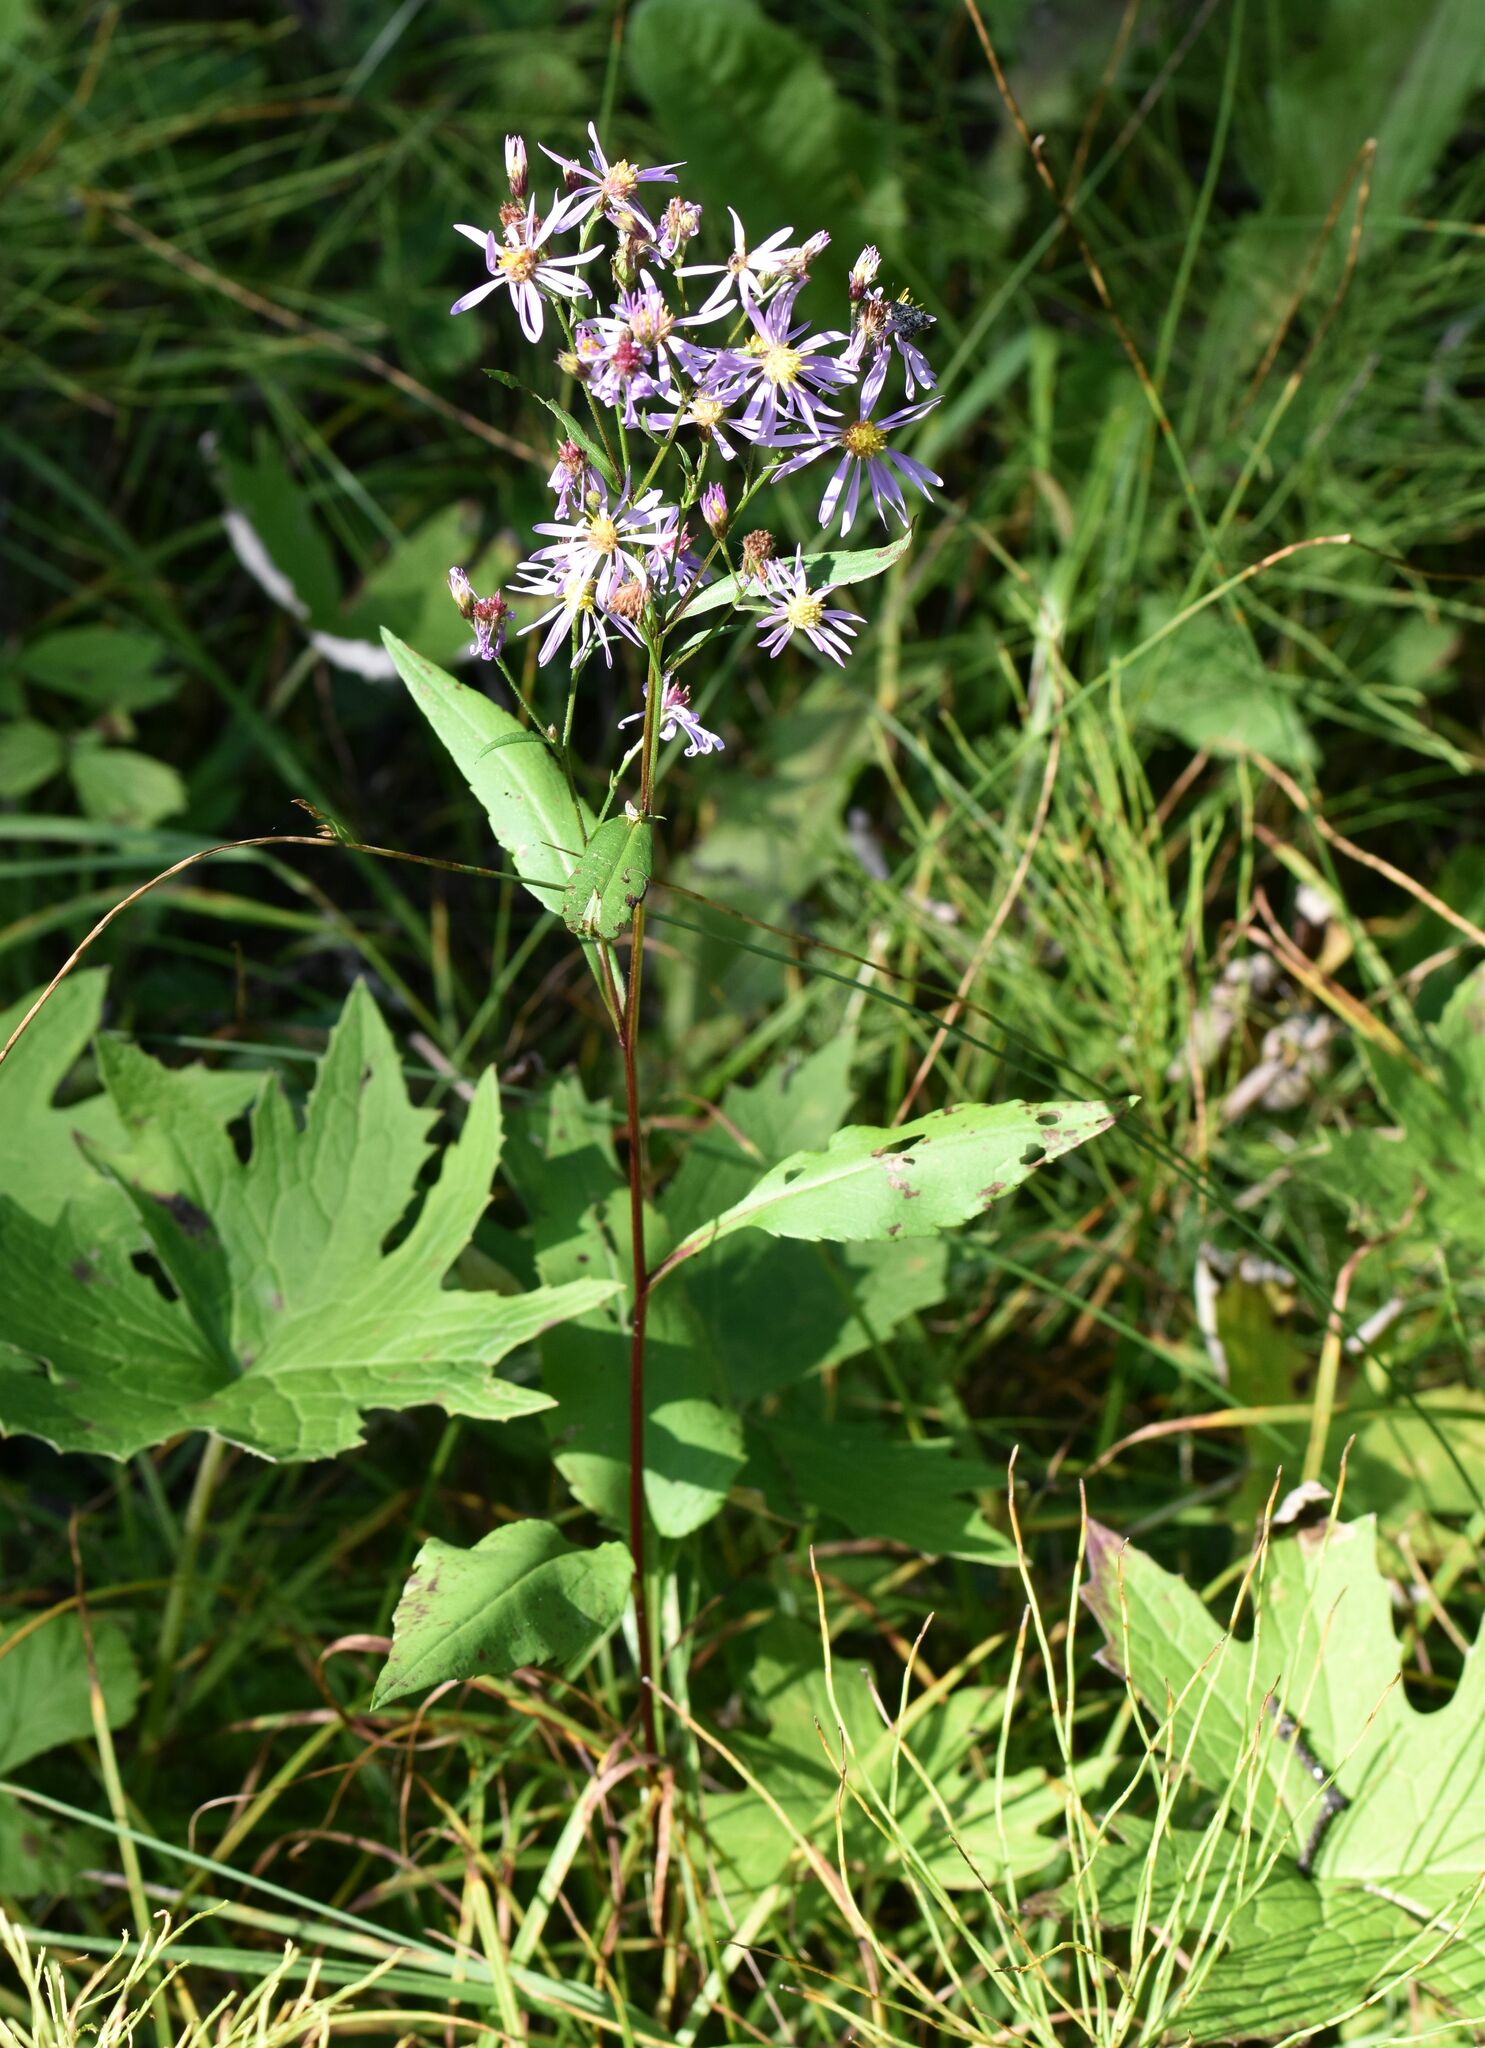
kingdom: Plantae
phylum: Tracheophyta
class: Magnoliopsida
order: Asterales
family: Asteraceae
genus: Symphyotrichum
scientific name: Symphyotrichum ciliolatum
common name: Fringed blue aster
